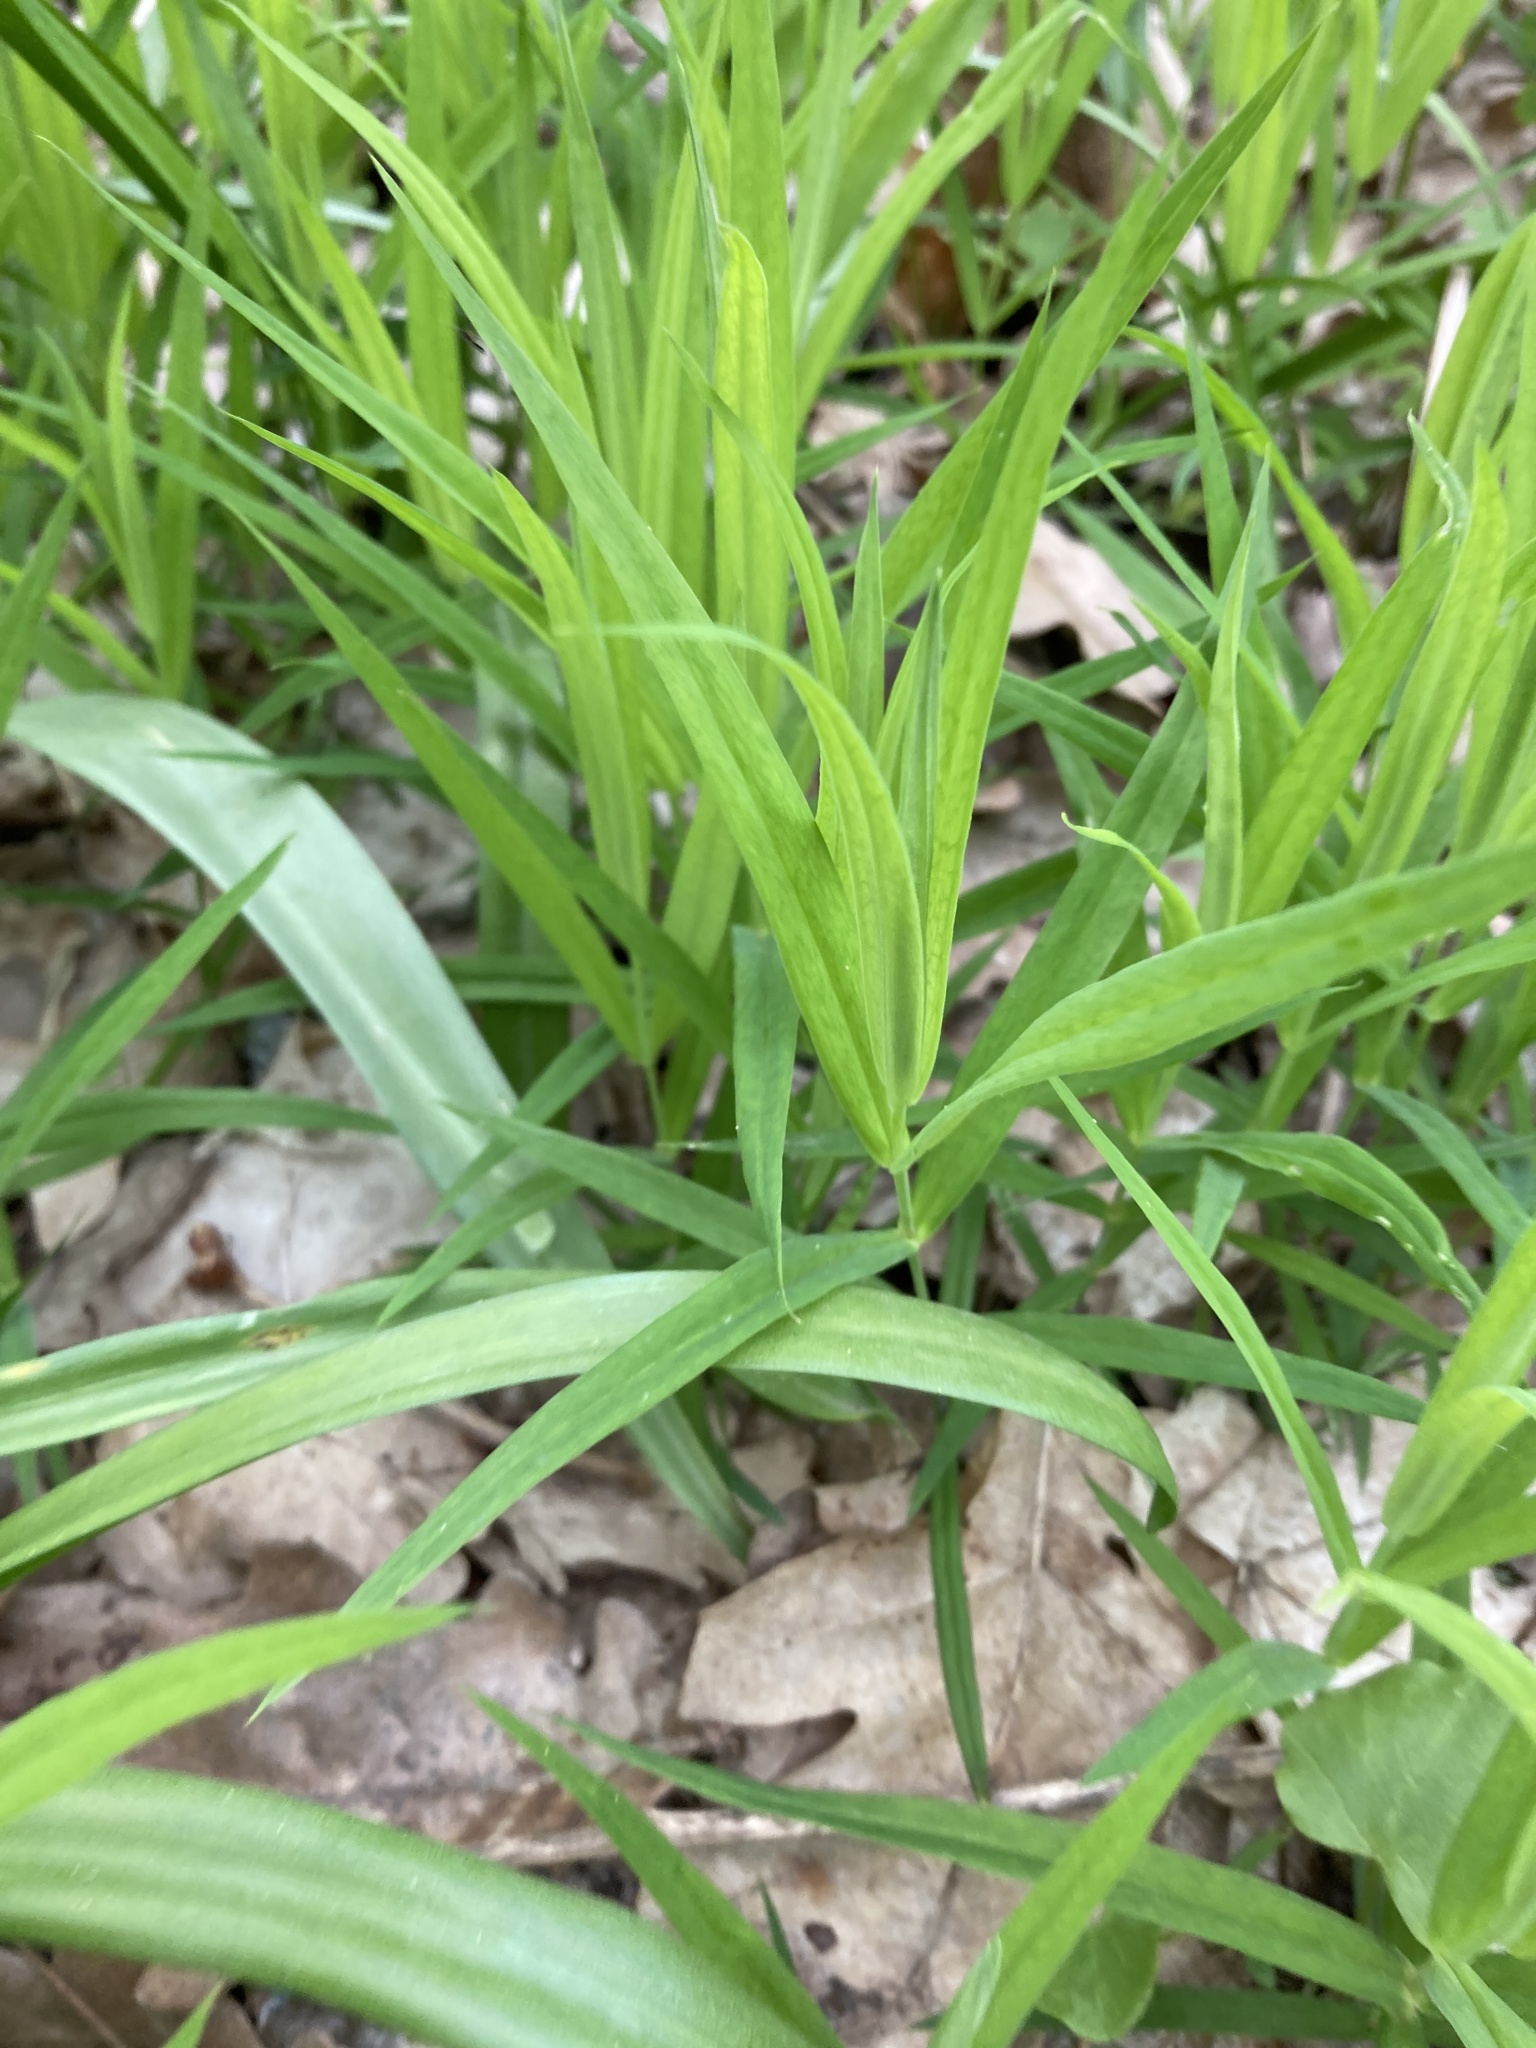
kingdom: Plantae
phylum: Tracheophyta
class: Magnoliopsida
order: Caryophyllales
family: Caryophyllaceae
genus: Rabelera
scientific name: Rabelera holostea
